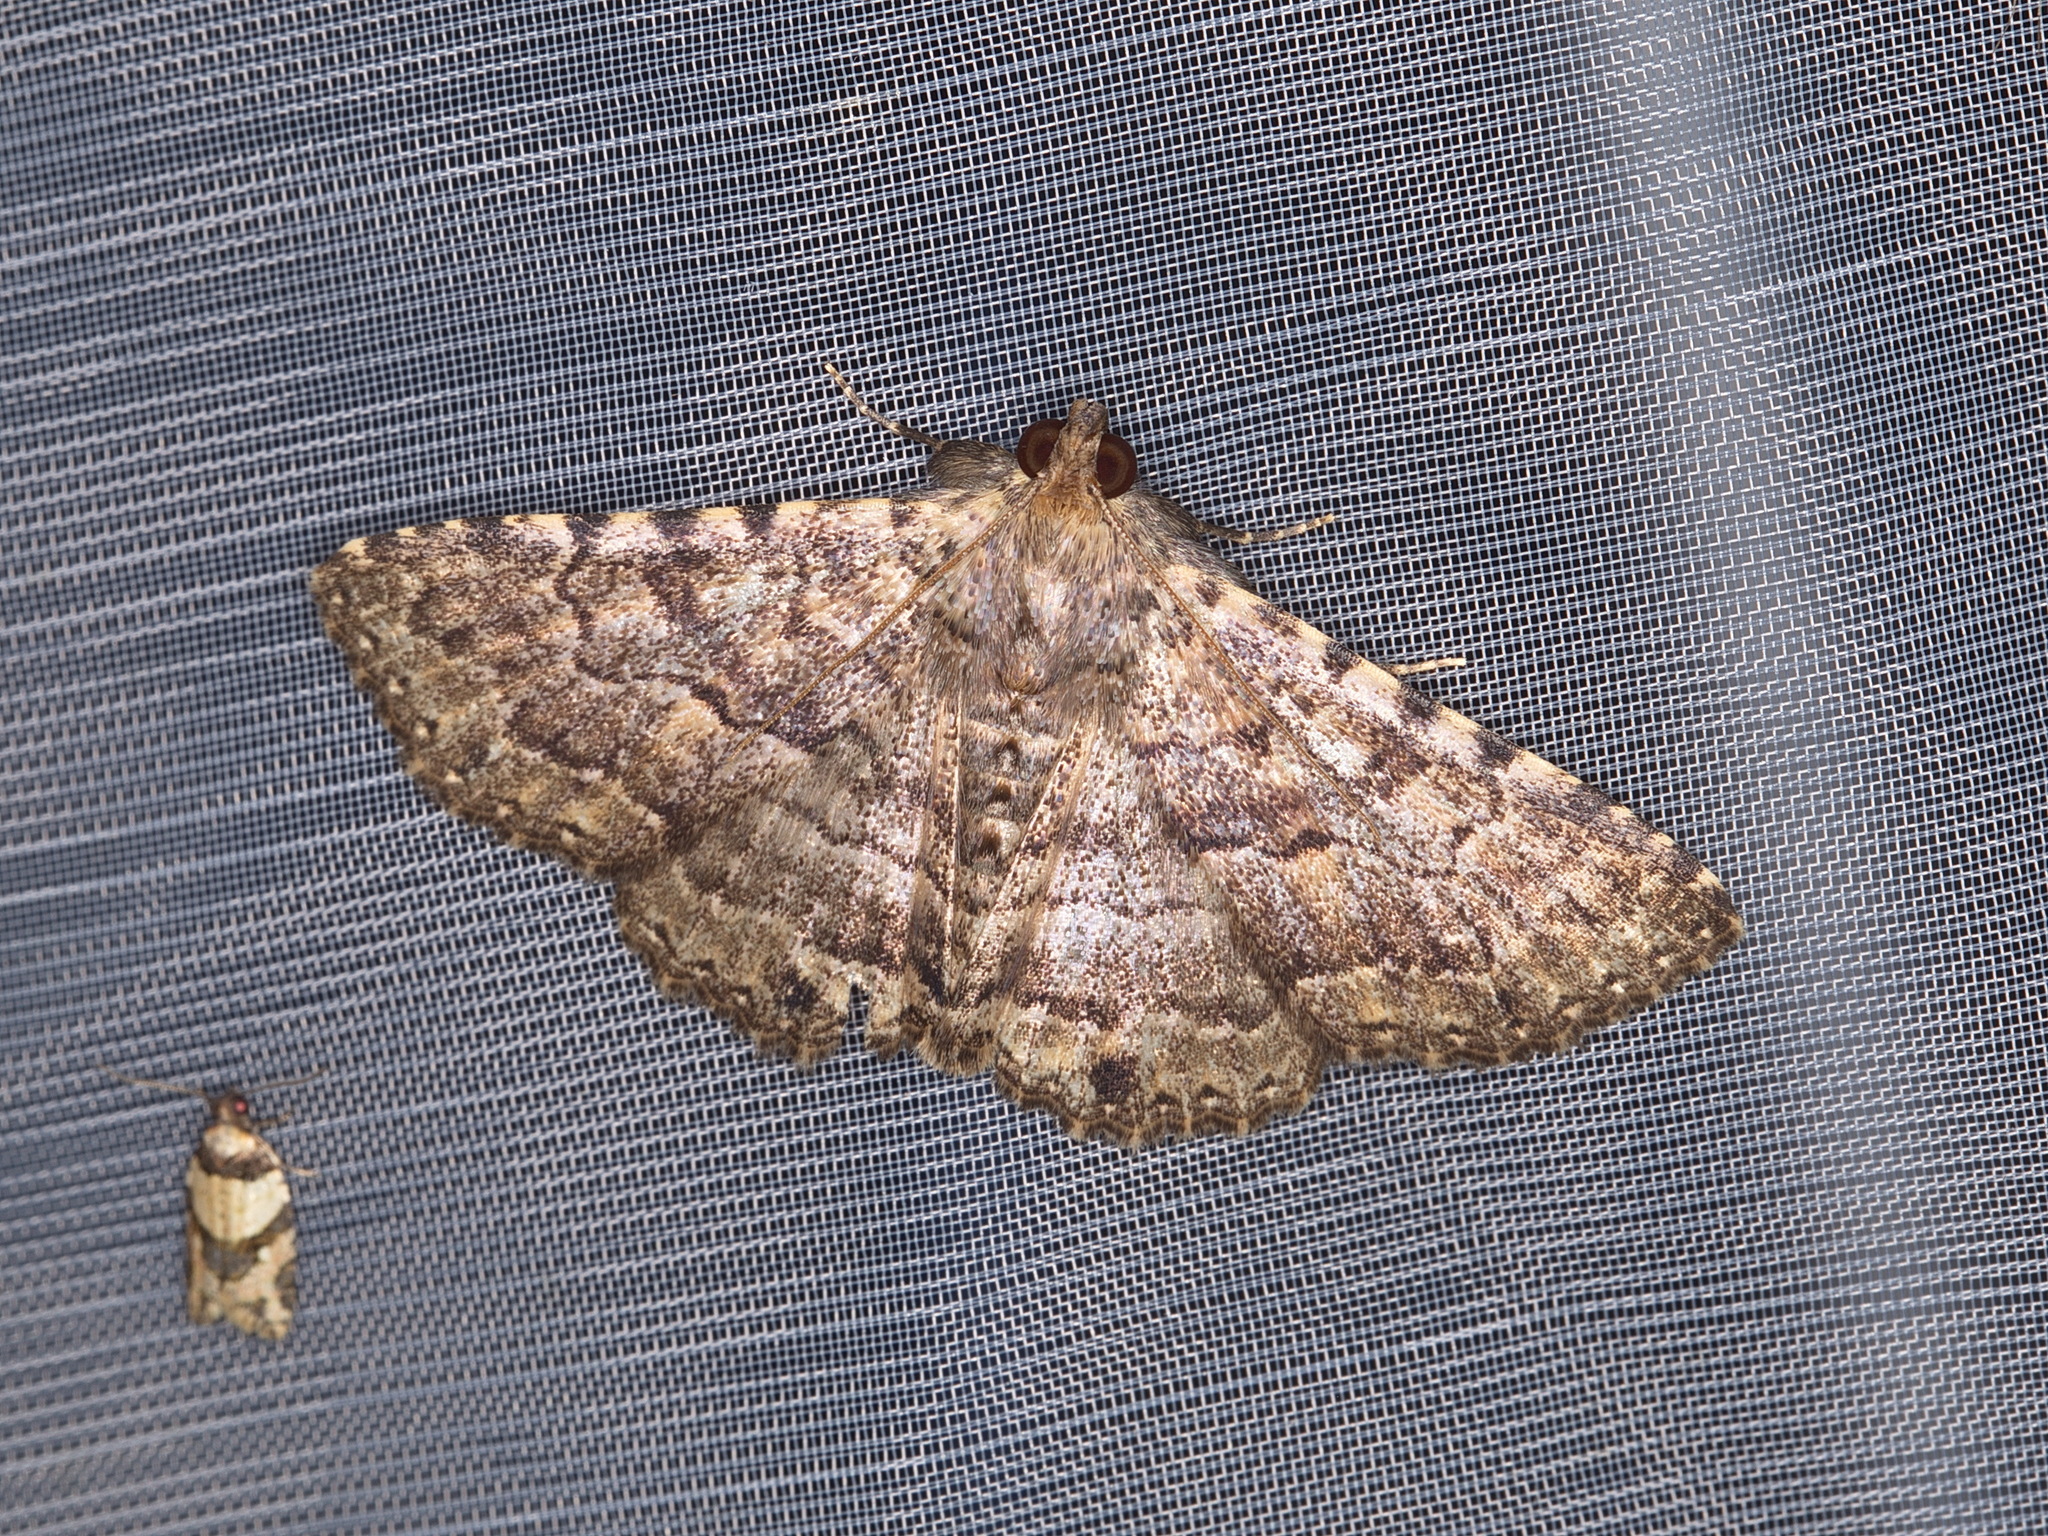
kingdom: Animalia
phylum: Arthropoda
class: Insecta
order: Lepidoptera
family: Erebidae
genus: Diatenes
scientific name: Diatenes aglossoides
